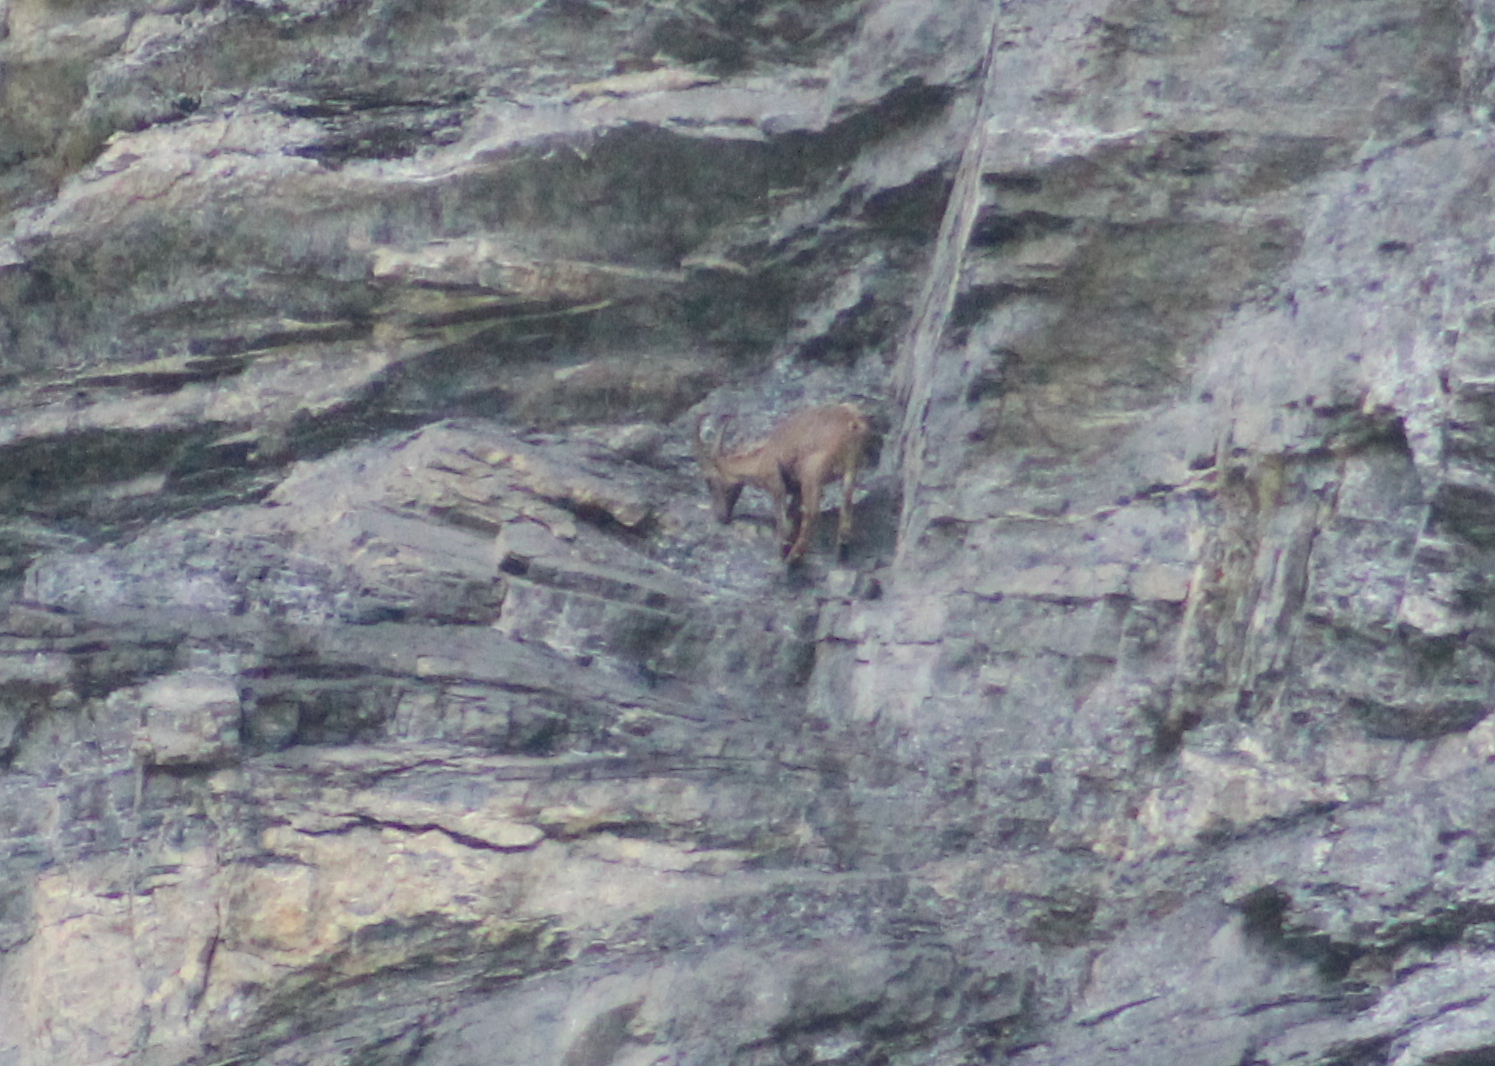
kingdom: Animalia
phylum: Chordata
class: Mammalia
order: Artiodactyla
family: Bovidae
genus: Capra
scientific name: Capra ibex
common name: Alpine ibex
